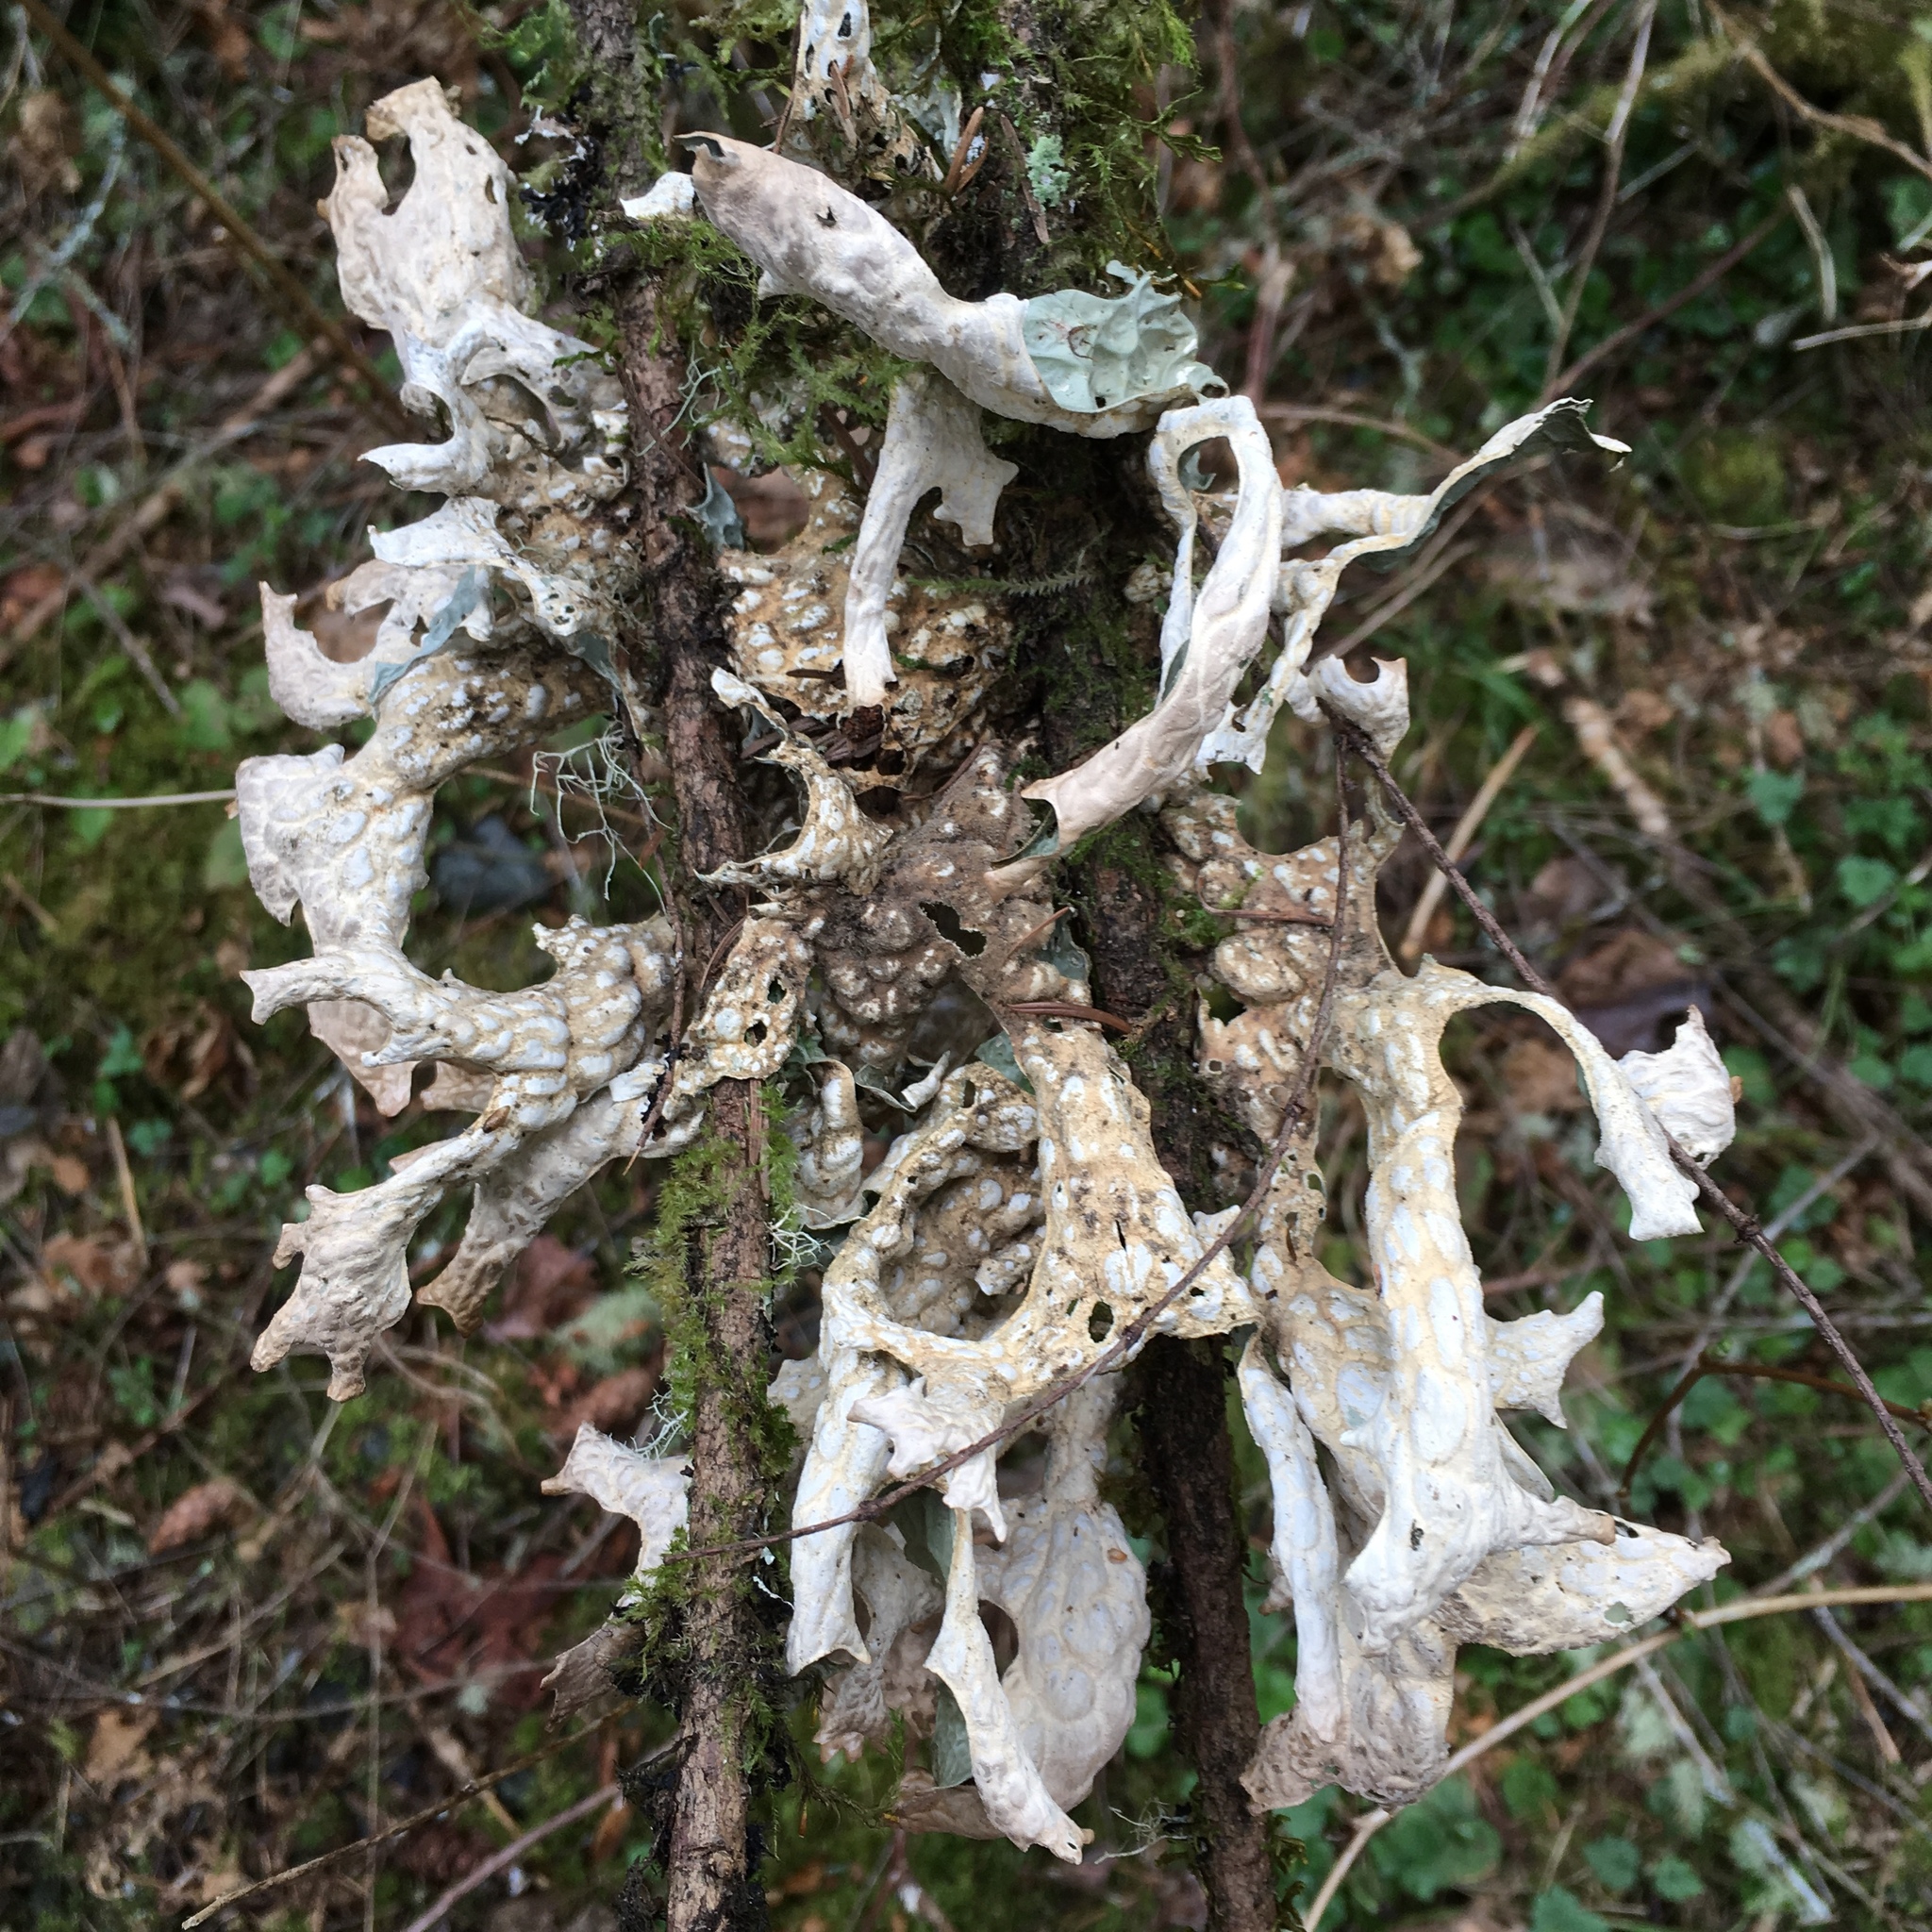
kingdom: Fungi
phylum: Ascomycota
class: Lecanoromycetes
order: Peltigerales
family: Lobariaceae
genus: Lobaria
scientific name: Lobaria pulmonaria
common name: Lungwort
